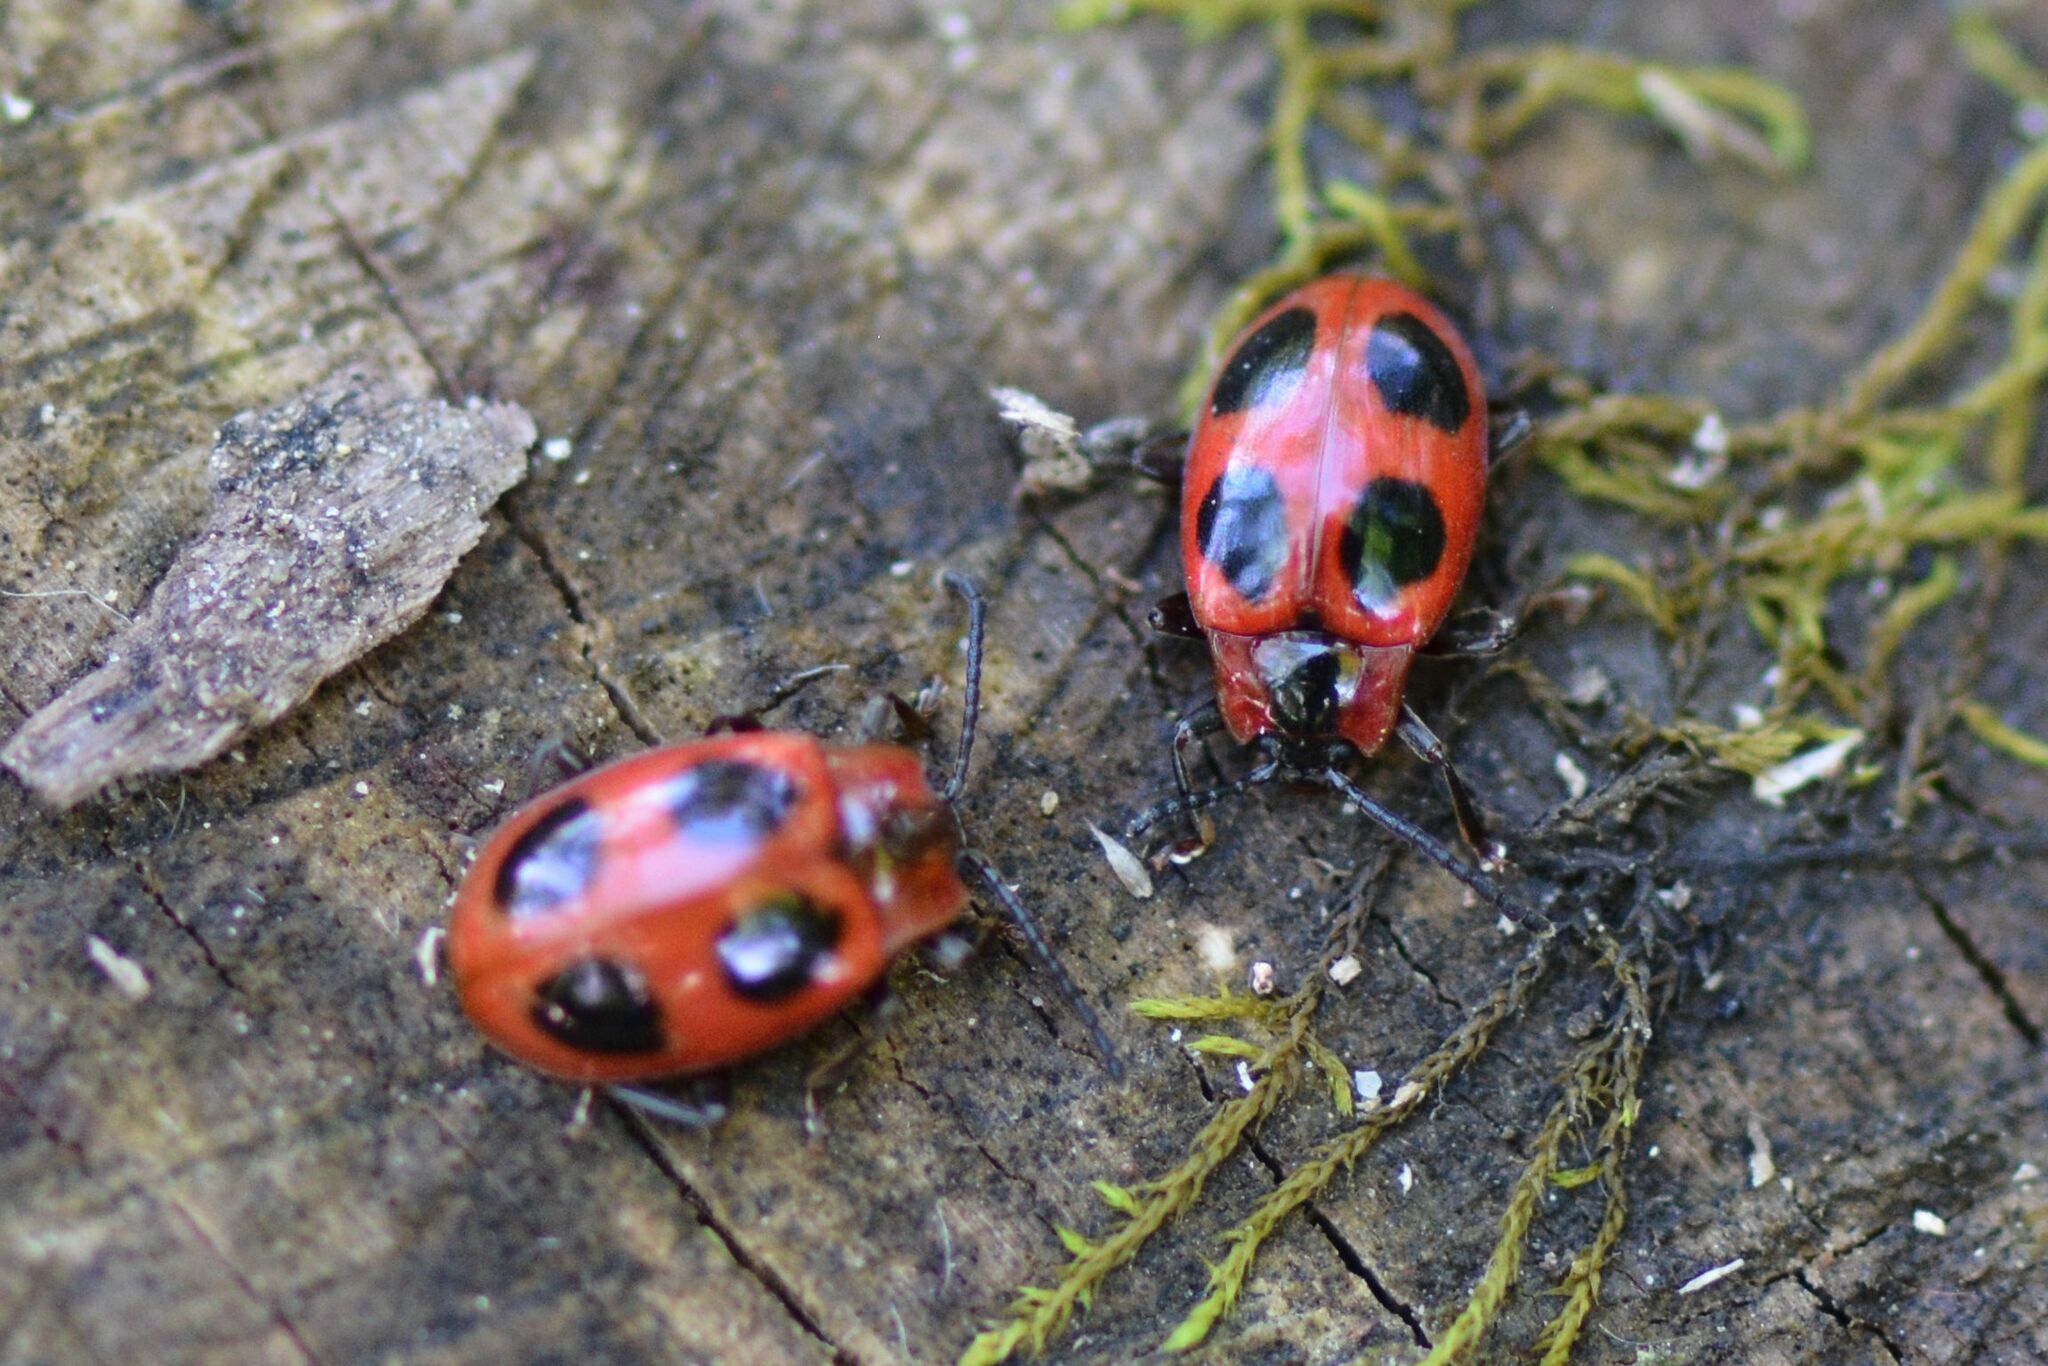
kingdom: Animalia
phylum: Arthropoda
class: Insecta
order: Coleoptera
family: Endomychidae
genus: Endomychus
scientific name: Endomychus coccineus
